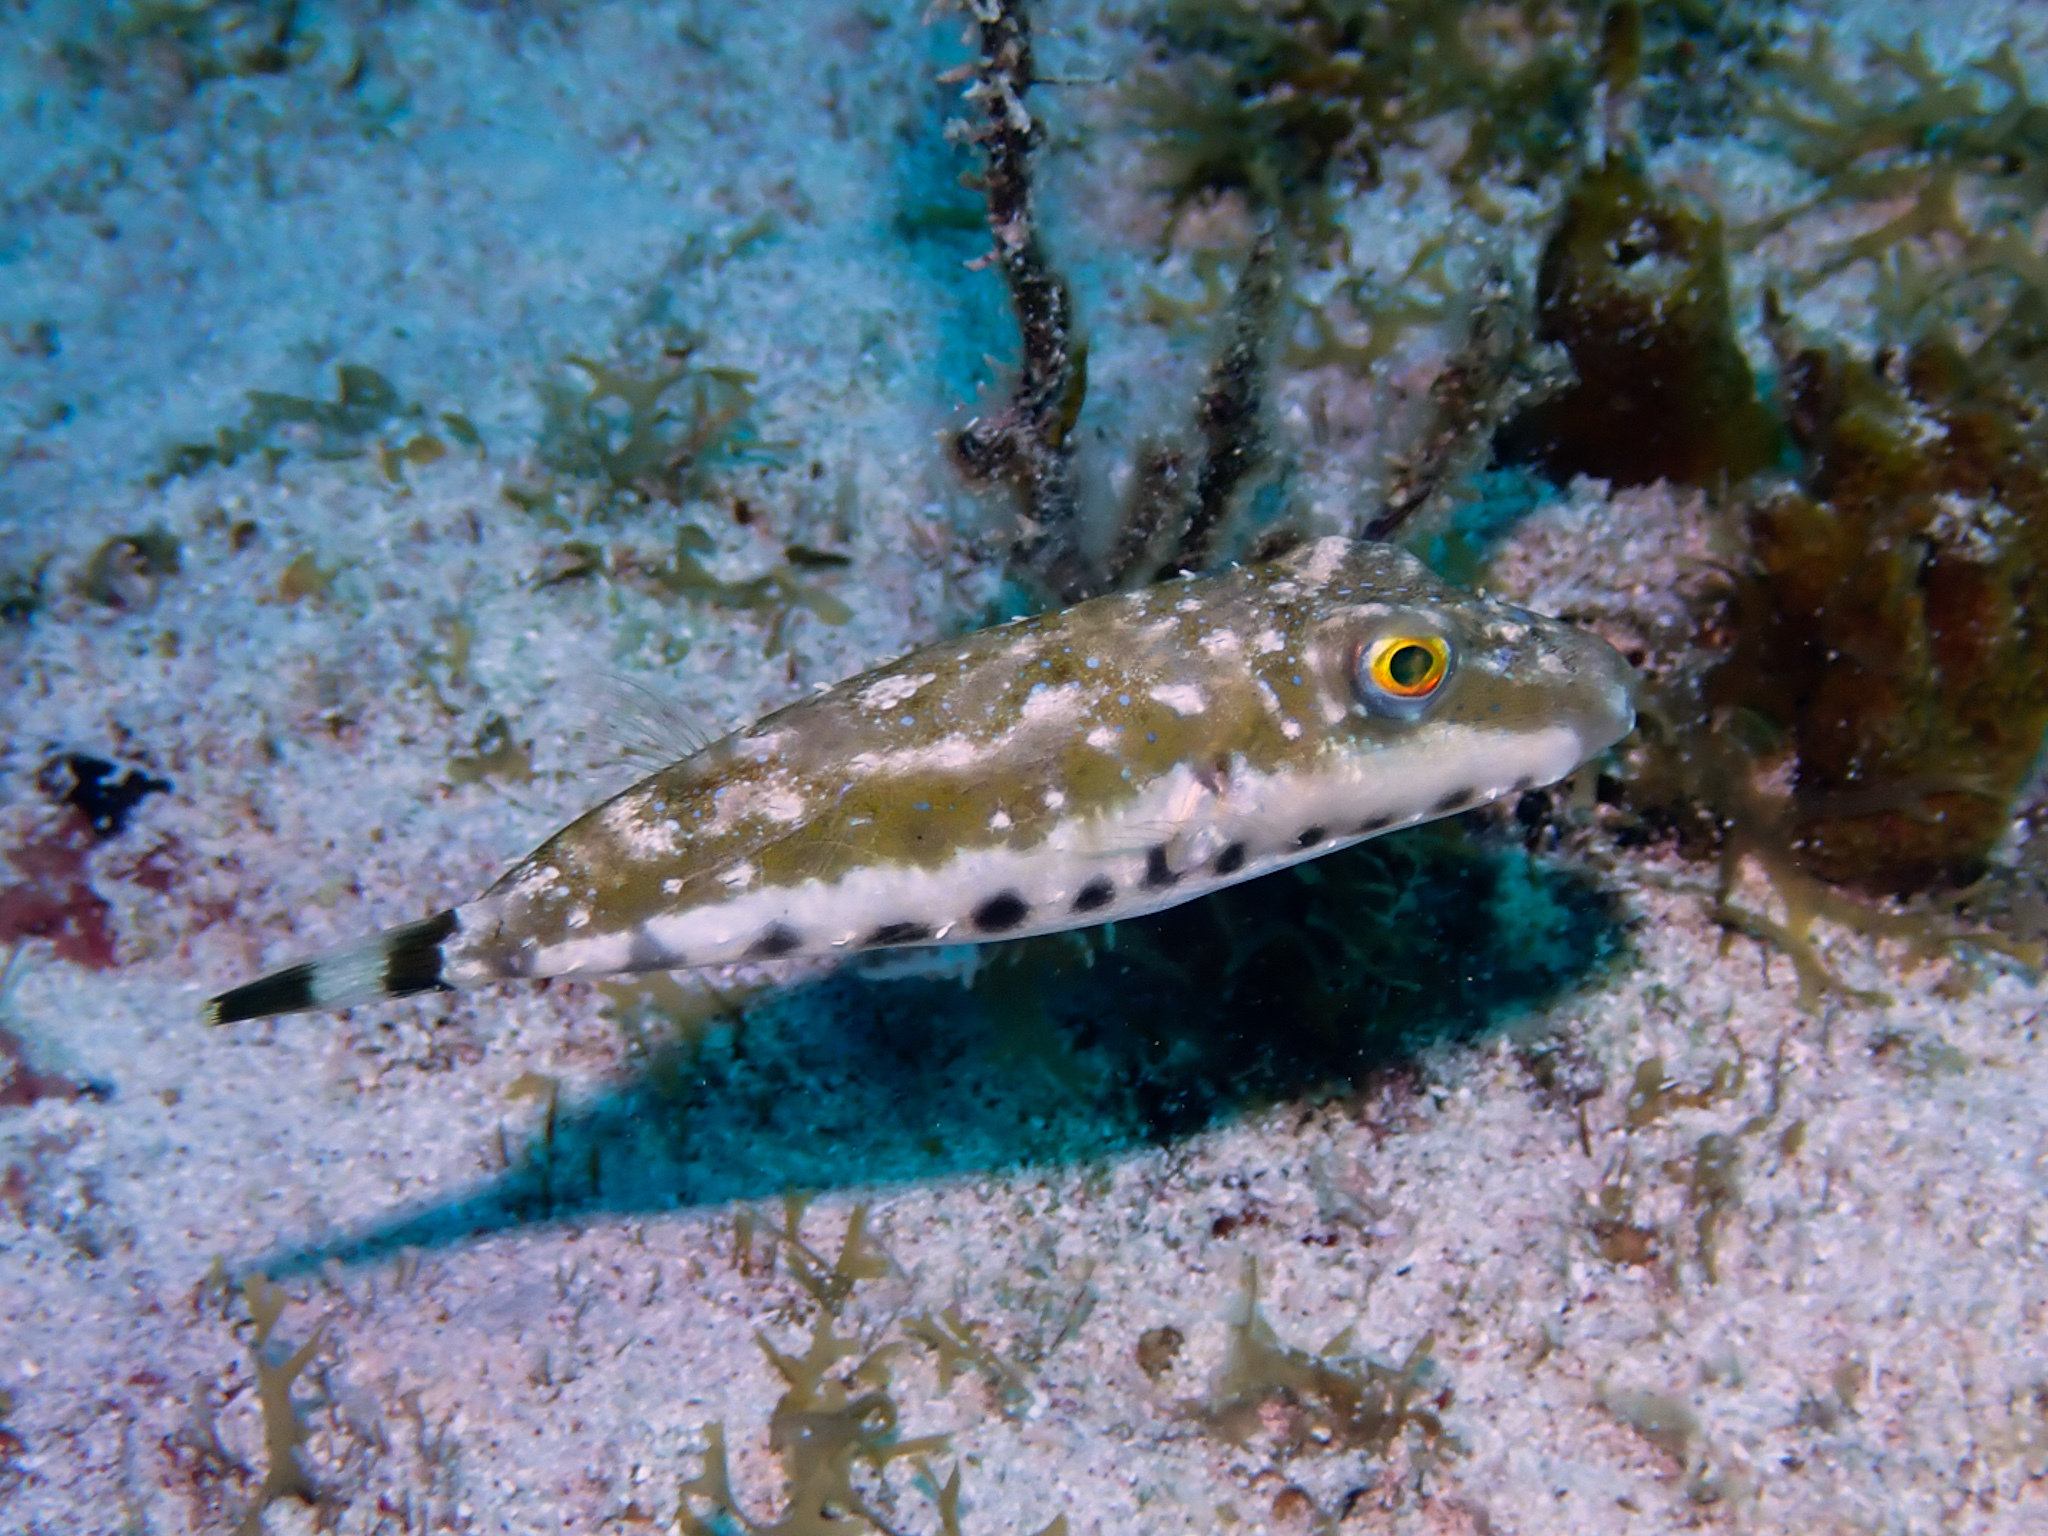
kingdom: Animalia
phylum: Chordata
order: Tetraodontiformes
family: Tetraodontidae
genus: Sphoeroides
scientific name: Sphoeroides spengleri
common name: Bandtail puffer
